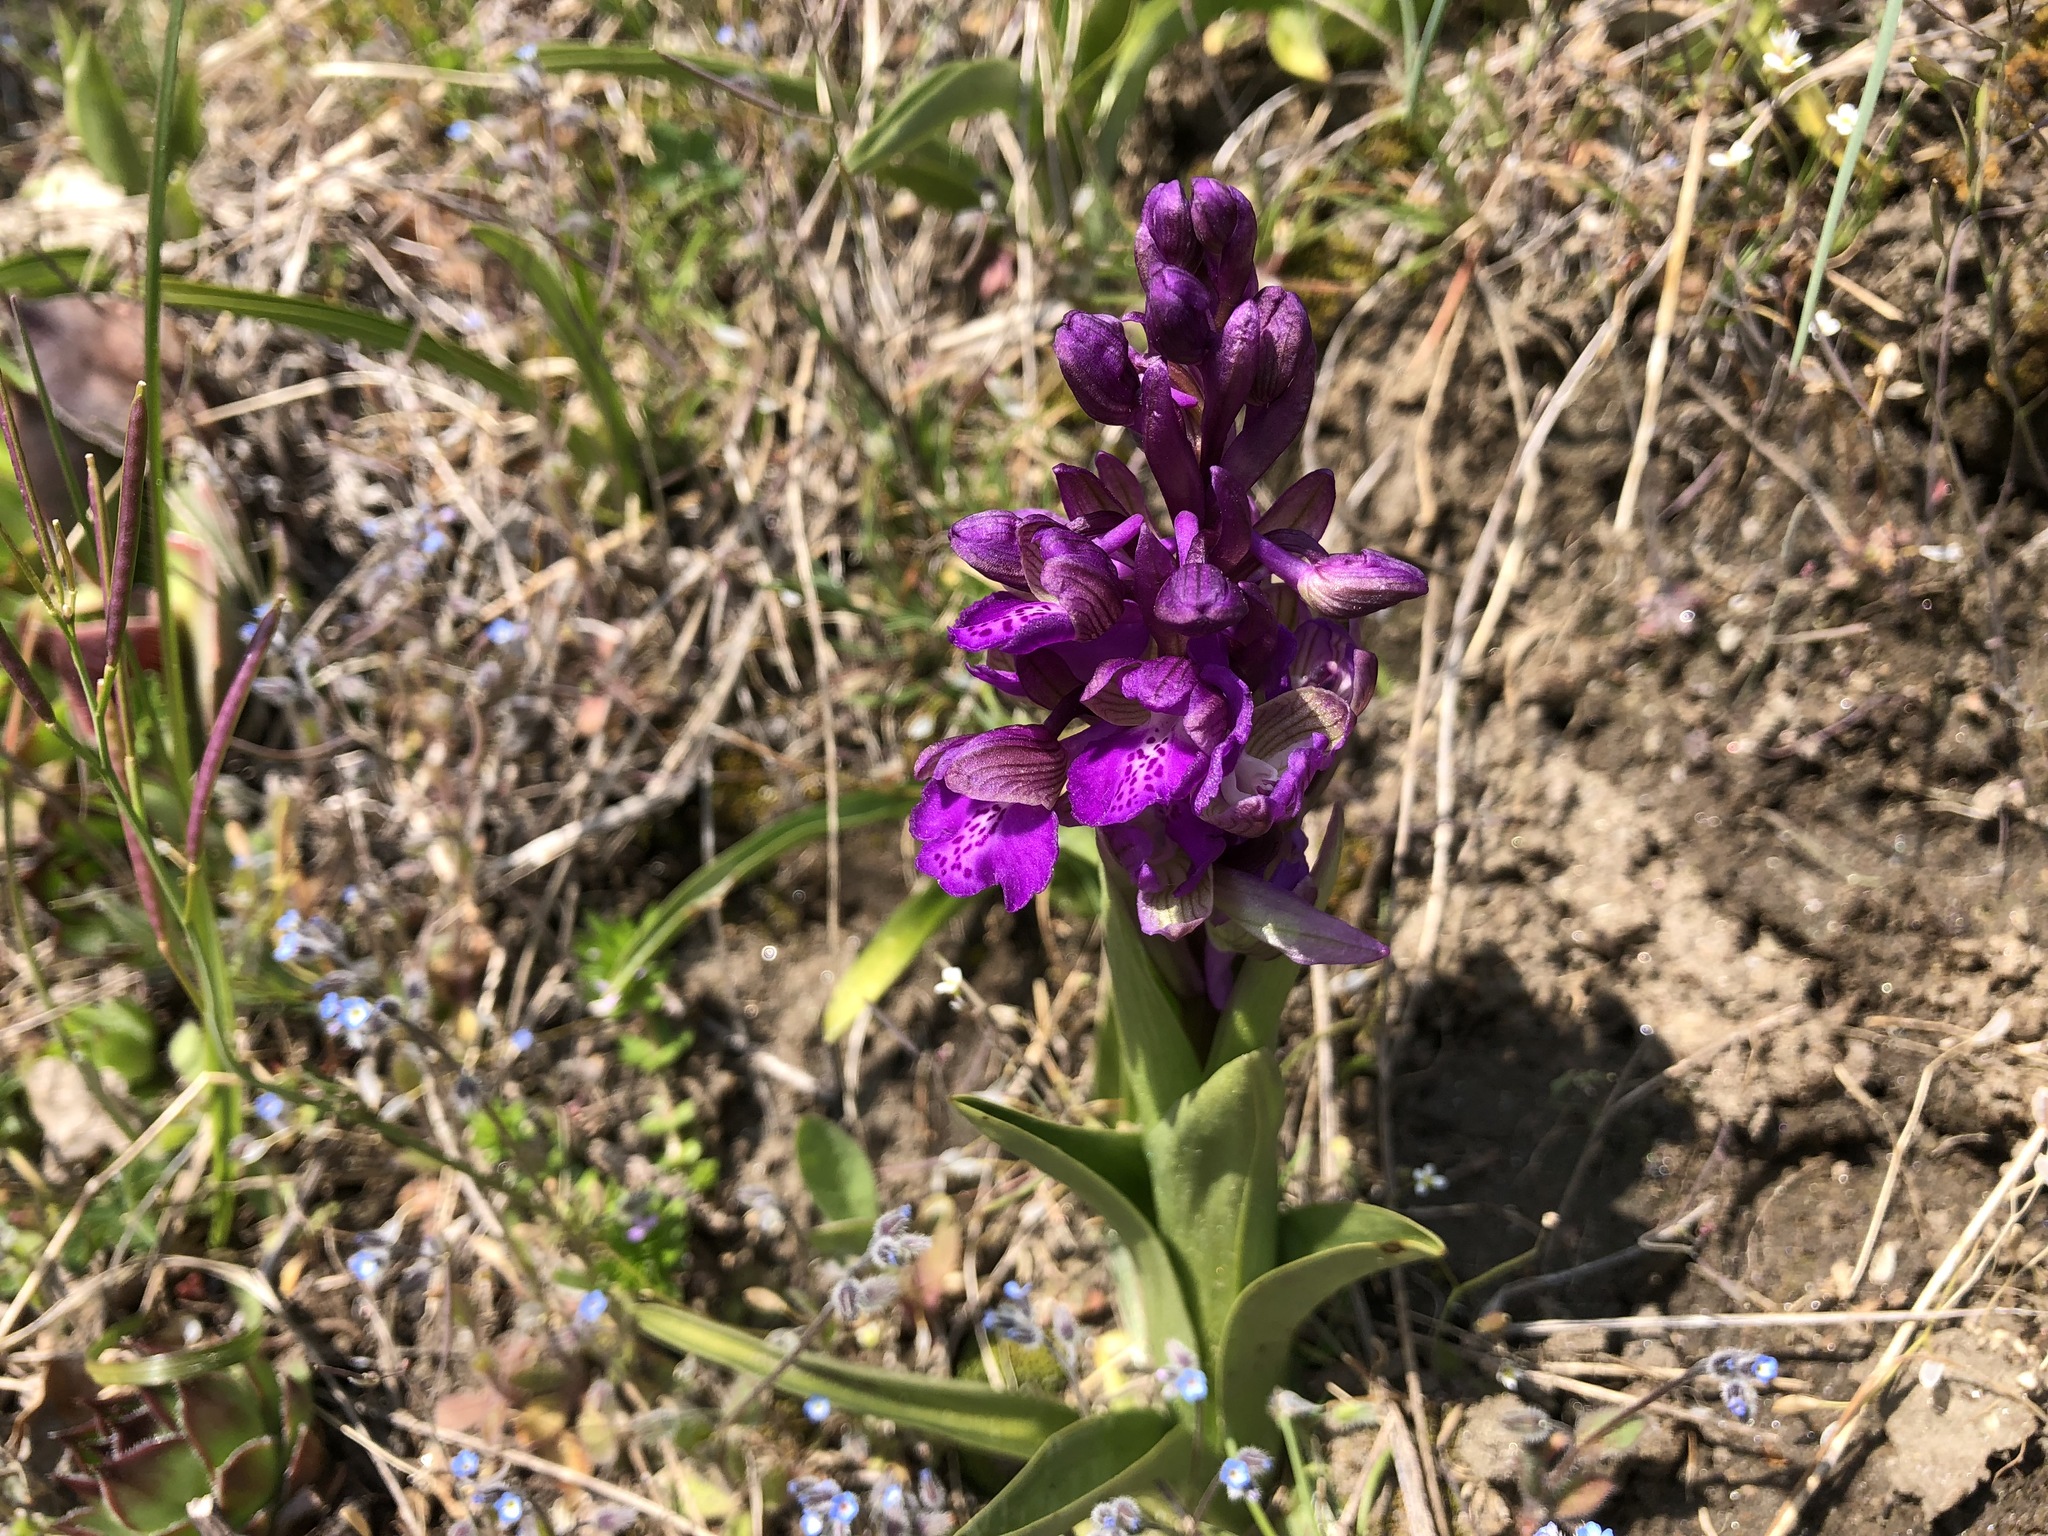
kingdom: Plantae
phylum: Tracheophyta
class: Liliopsida
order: Asparagales
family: Orchidaceae
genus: Anacamptis
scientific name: Anacamptis morio
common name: Green-winged orchid
